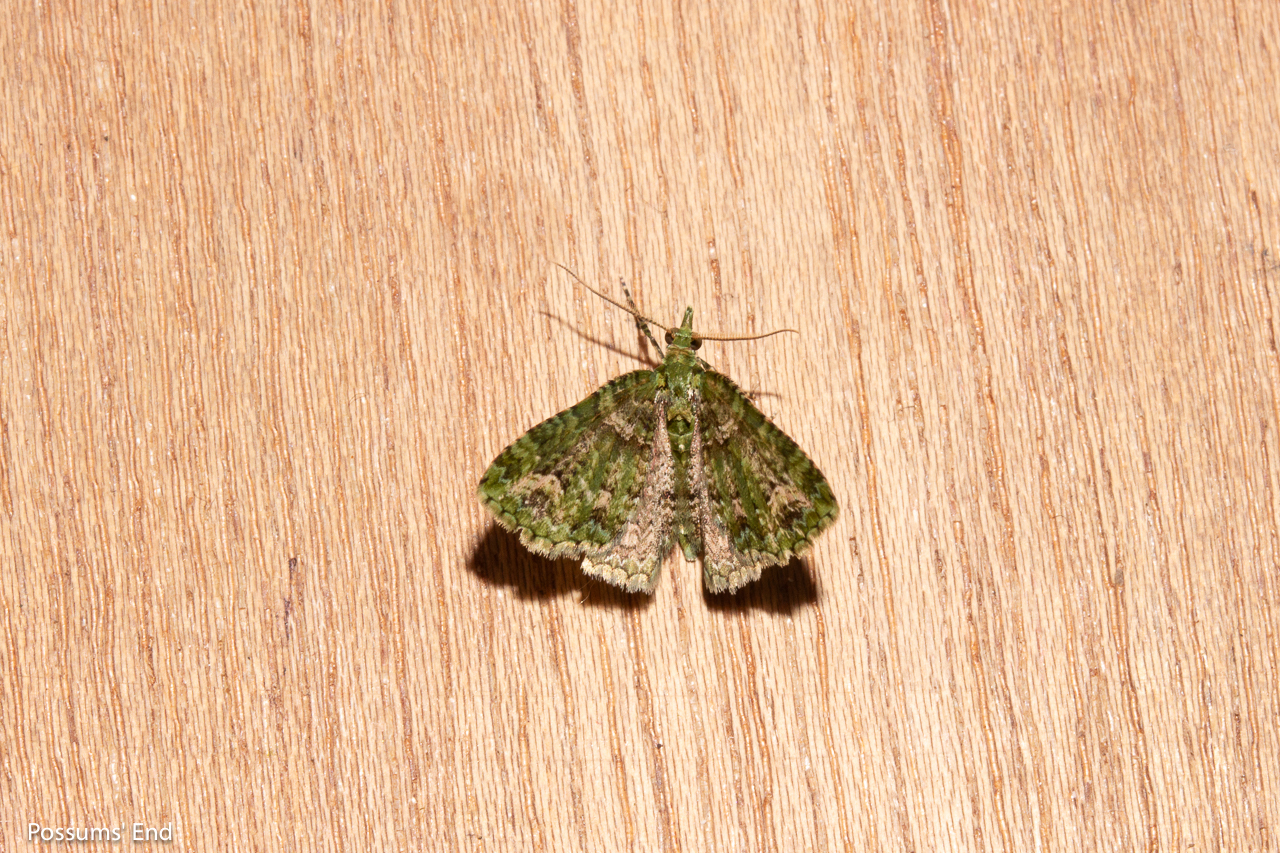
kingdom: Animalia
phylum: Arthropoda
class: Insecta
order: Lepidoptera
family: Geometridae
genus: Pasiphila
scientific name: Pasiphila muscosata
